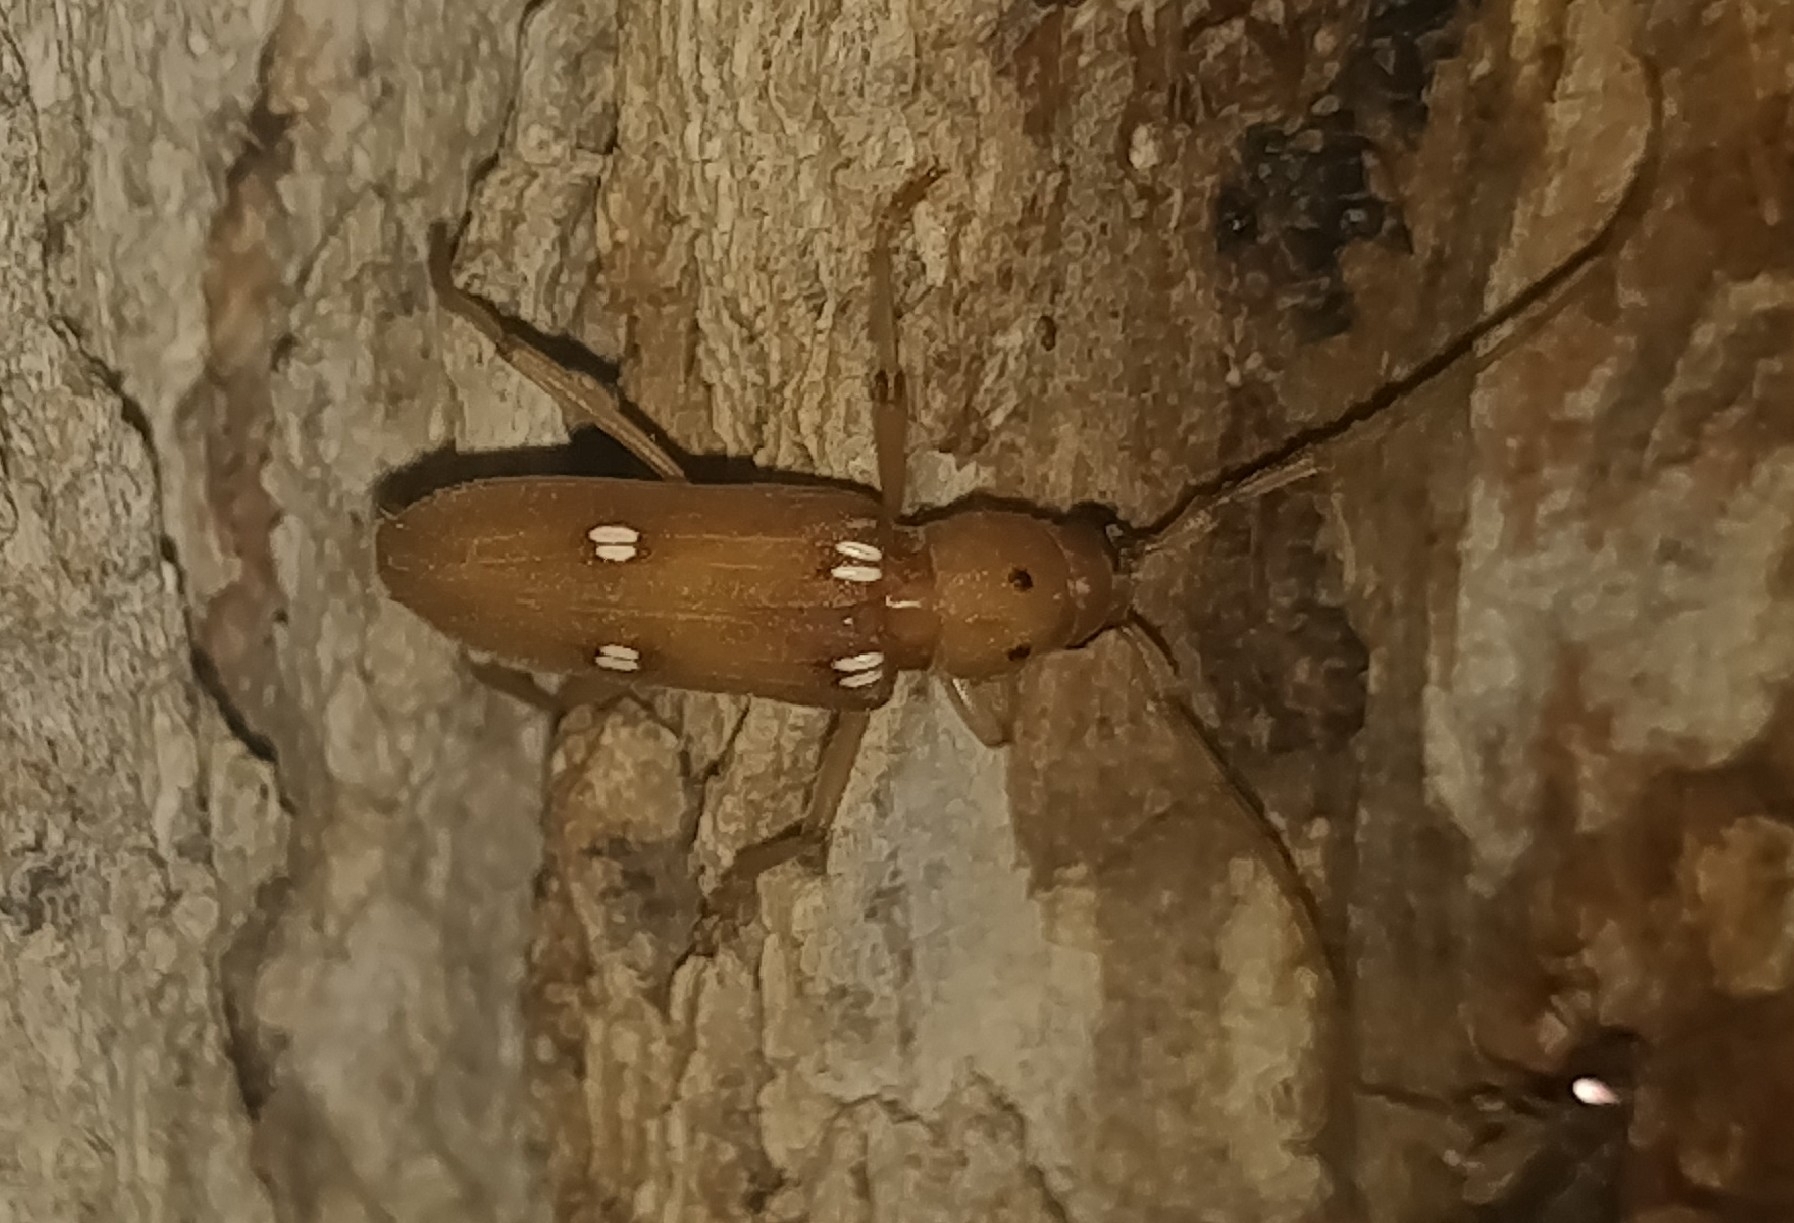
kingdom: Animalia
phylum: Arthropoda
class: Insecta
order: Coleoptera
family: Cerambycidae
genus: Eburia
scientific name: Eburia quadrigeminata
